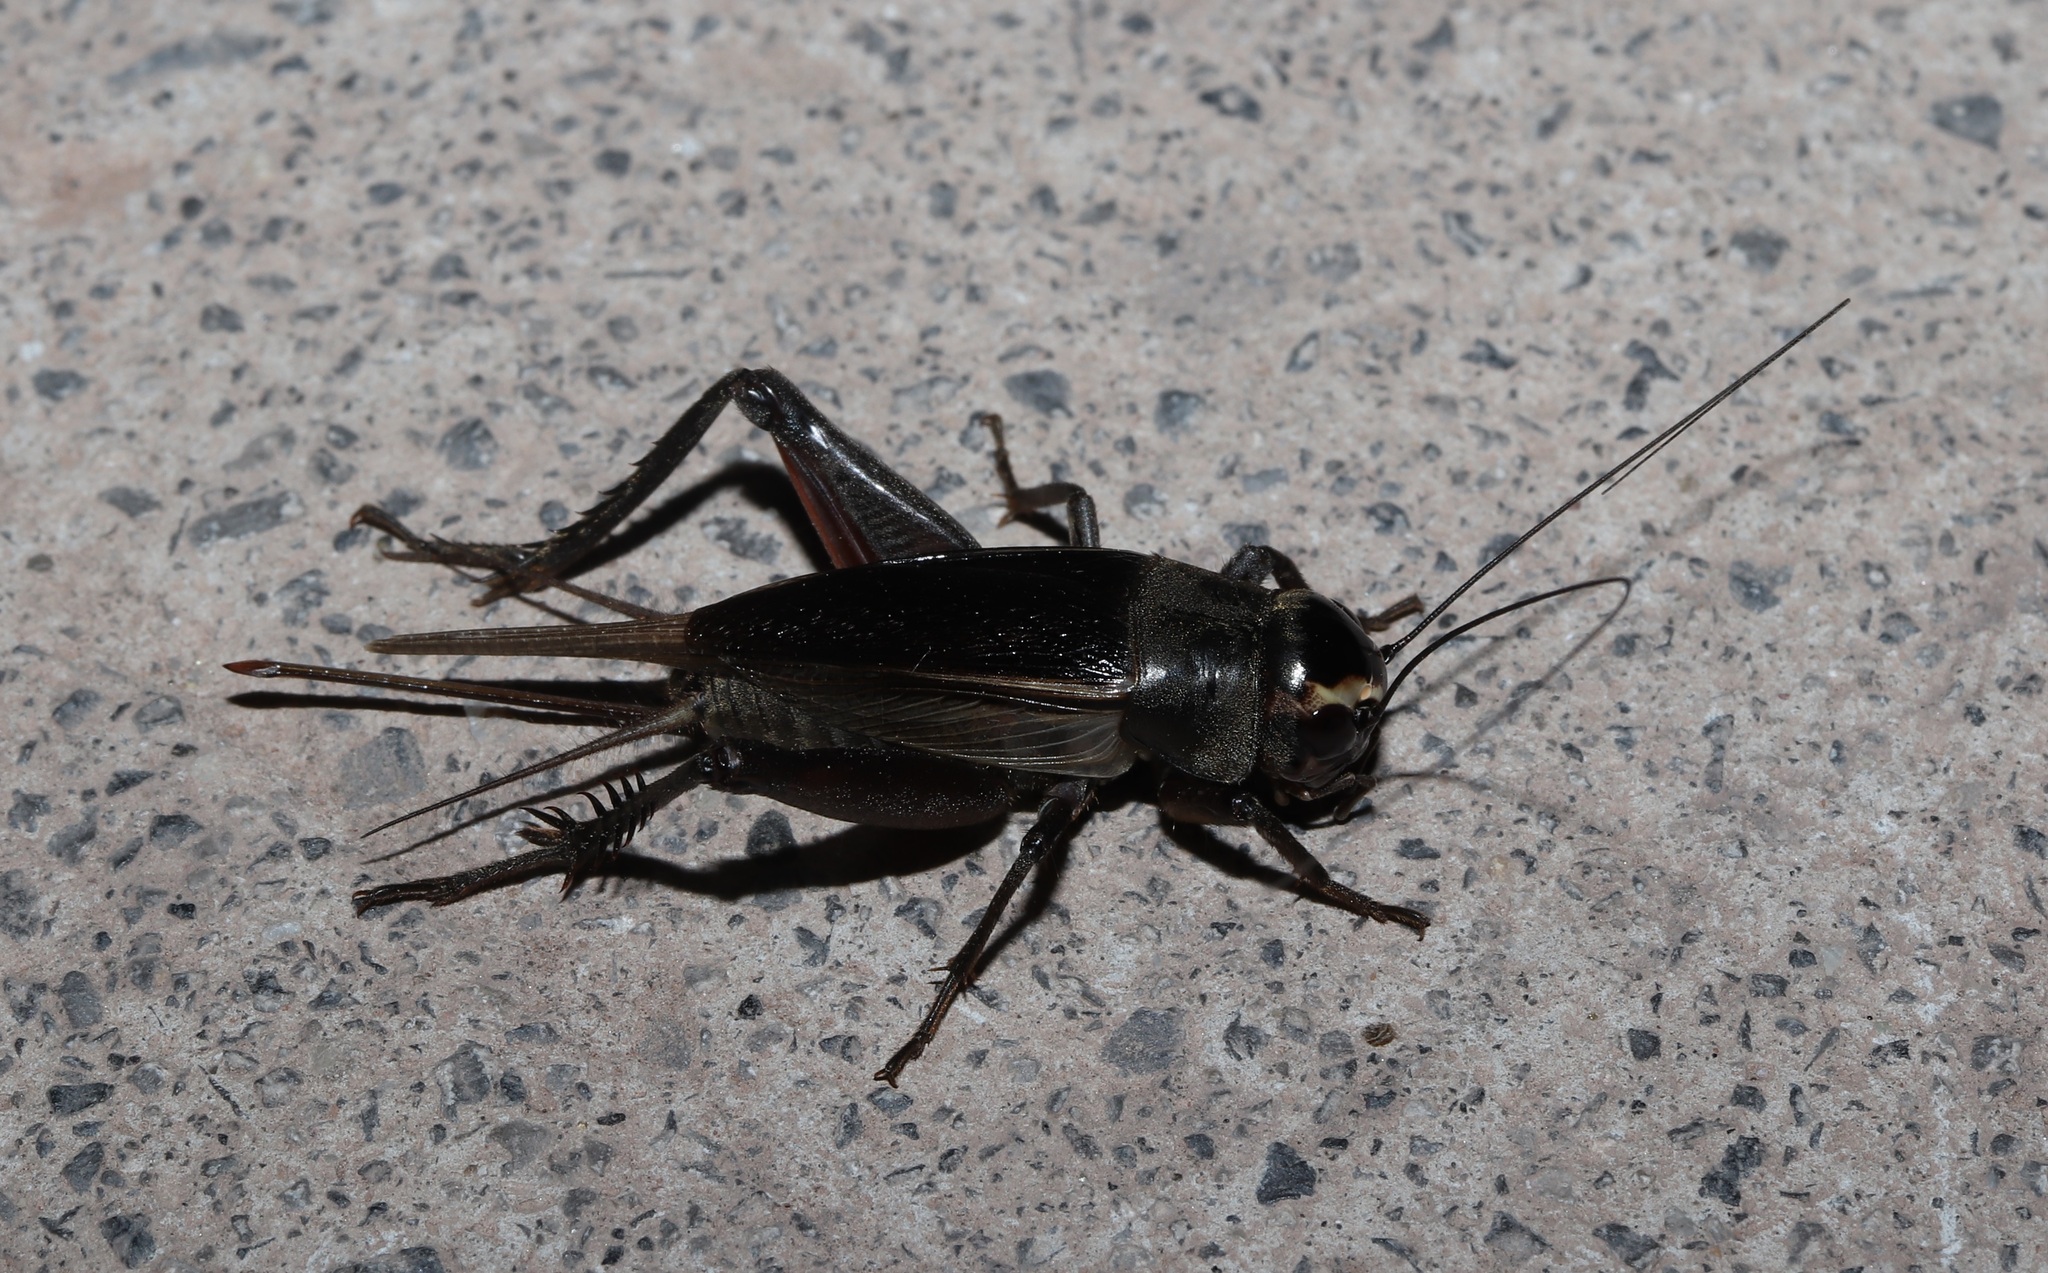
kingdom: Animalia
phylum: Arthropoda
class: Insecta
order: Orthoptera
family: Gryllidae
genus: Teleogryllus
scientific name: Teleogryllus occipitalis
